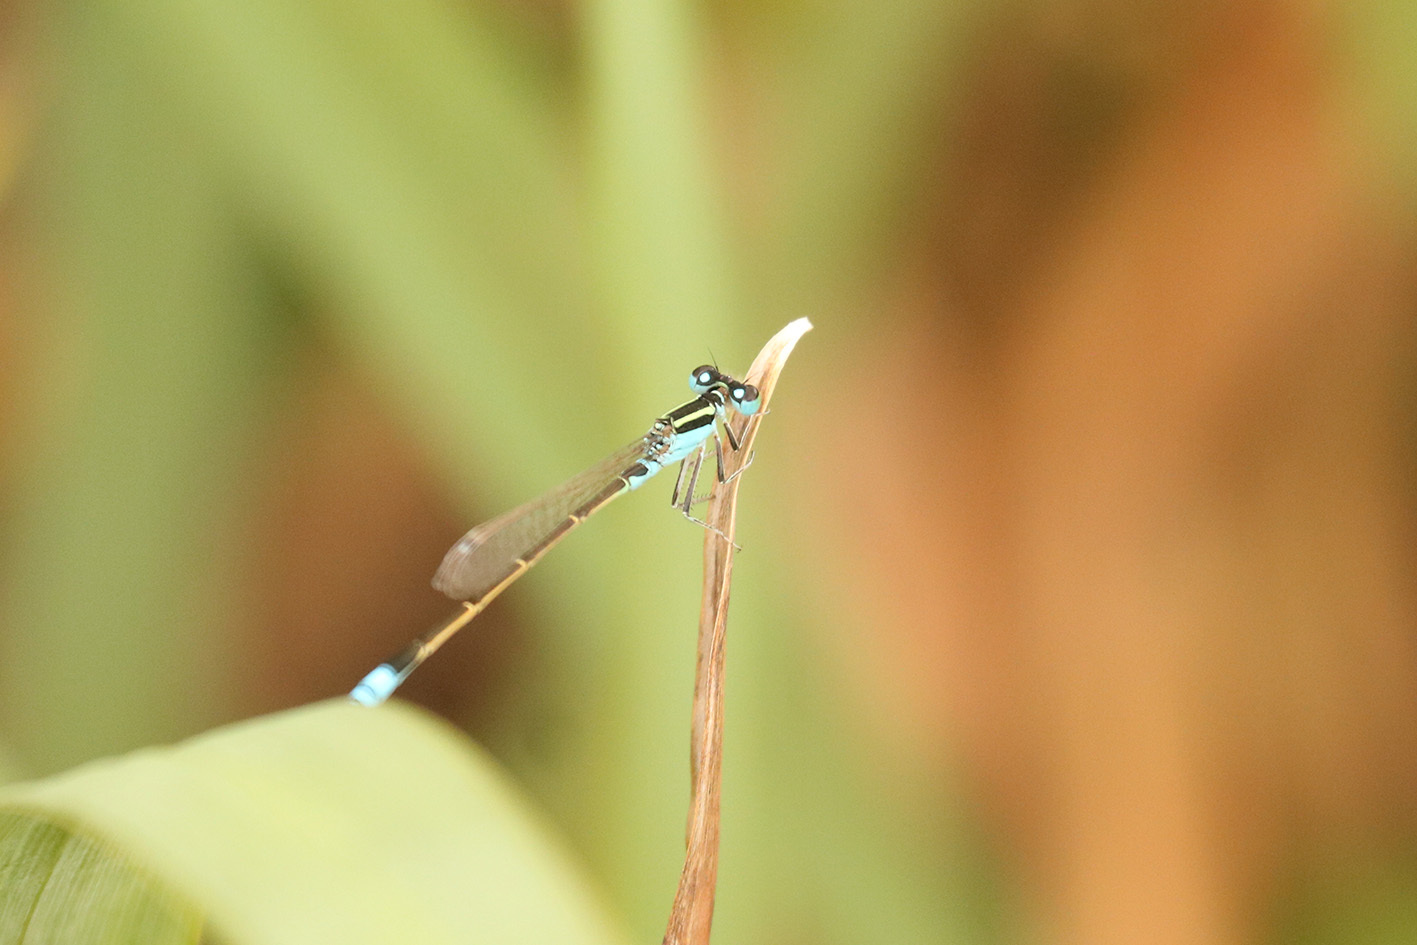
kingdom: Animalia
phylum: Arthropoda
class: Insecta
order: Odonata
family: Coenagrionidae
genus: Ischnura
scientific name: Ischnura fluviatilis
